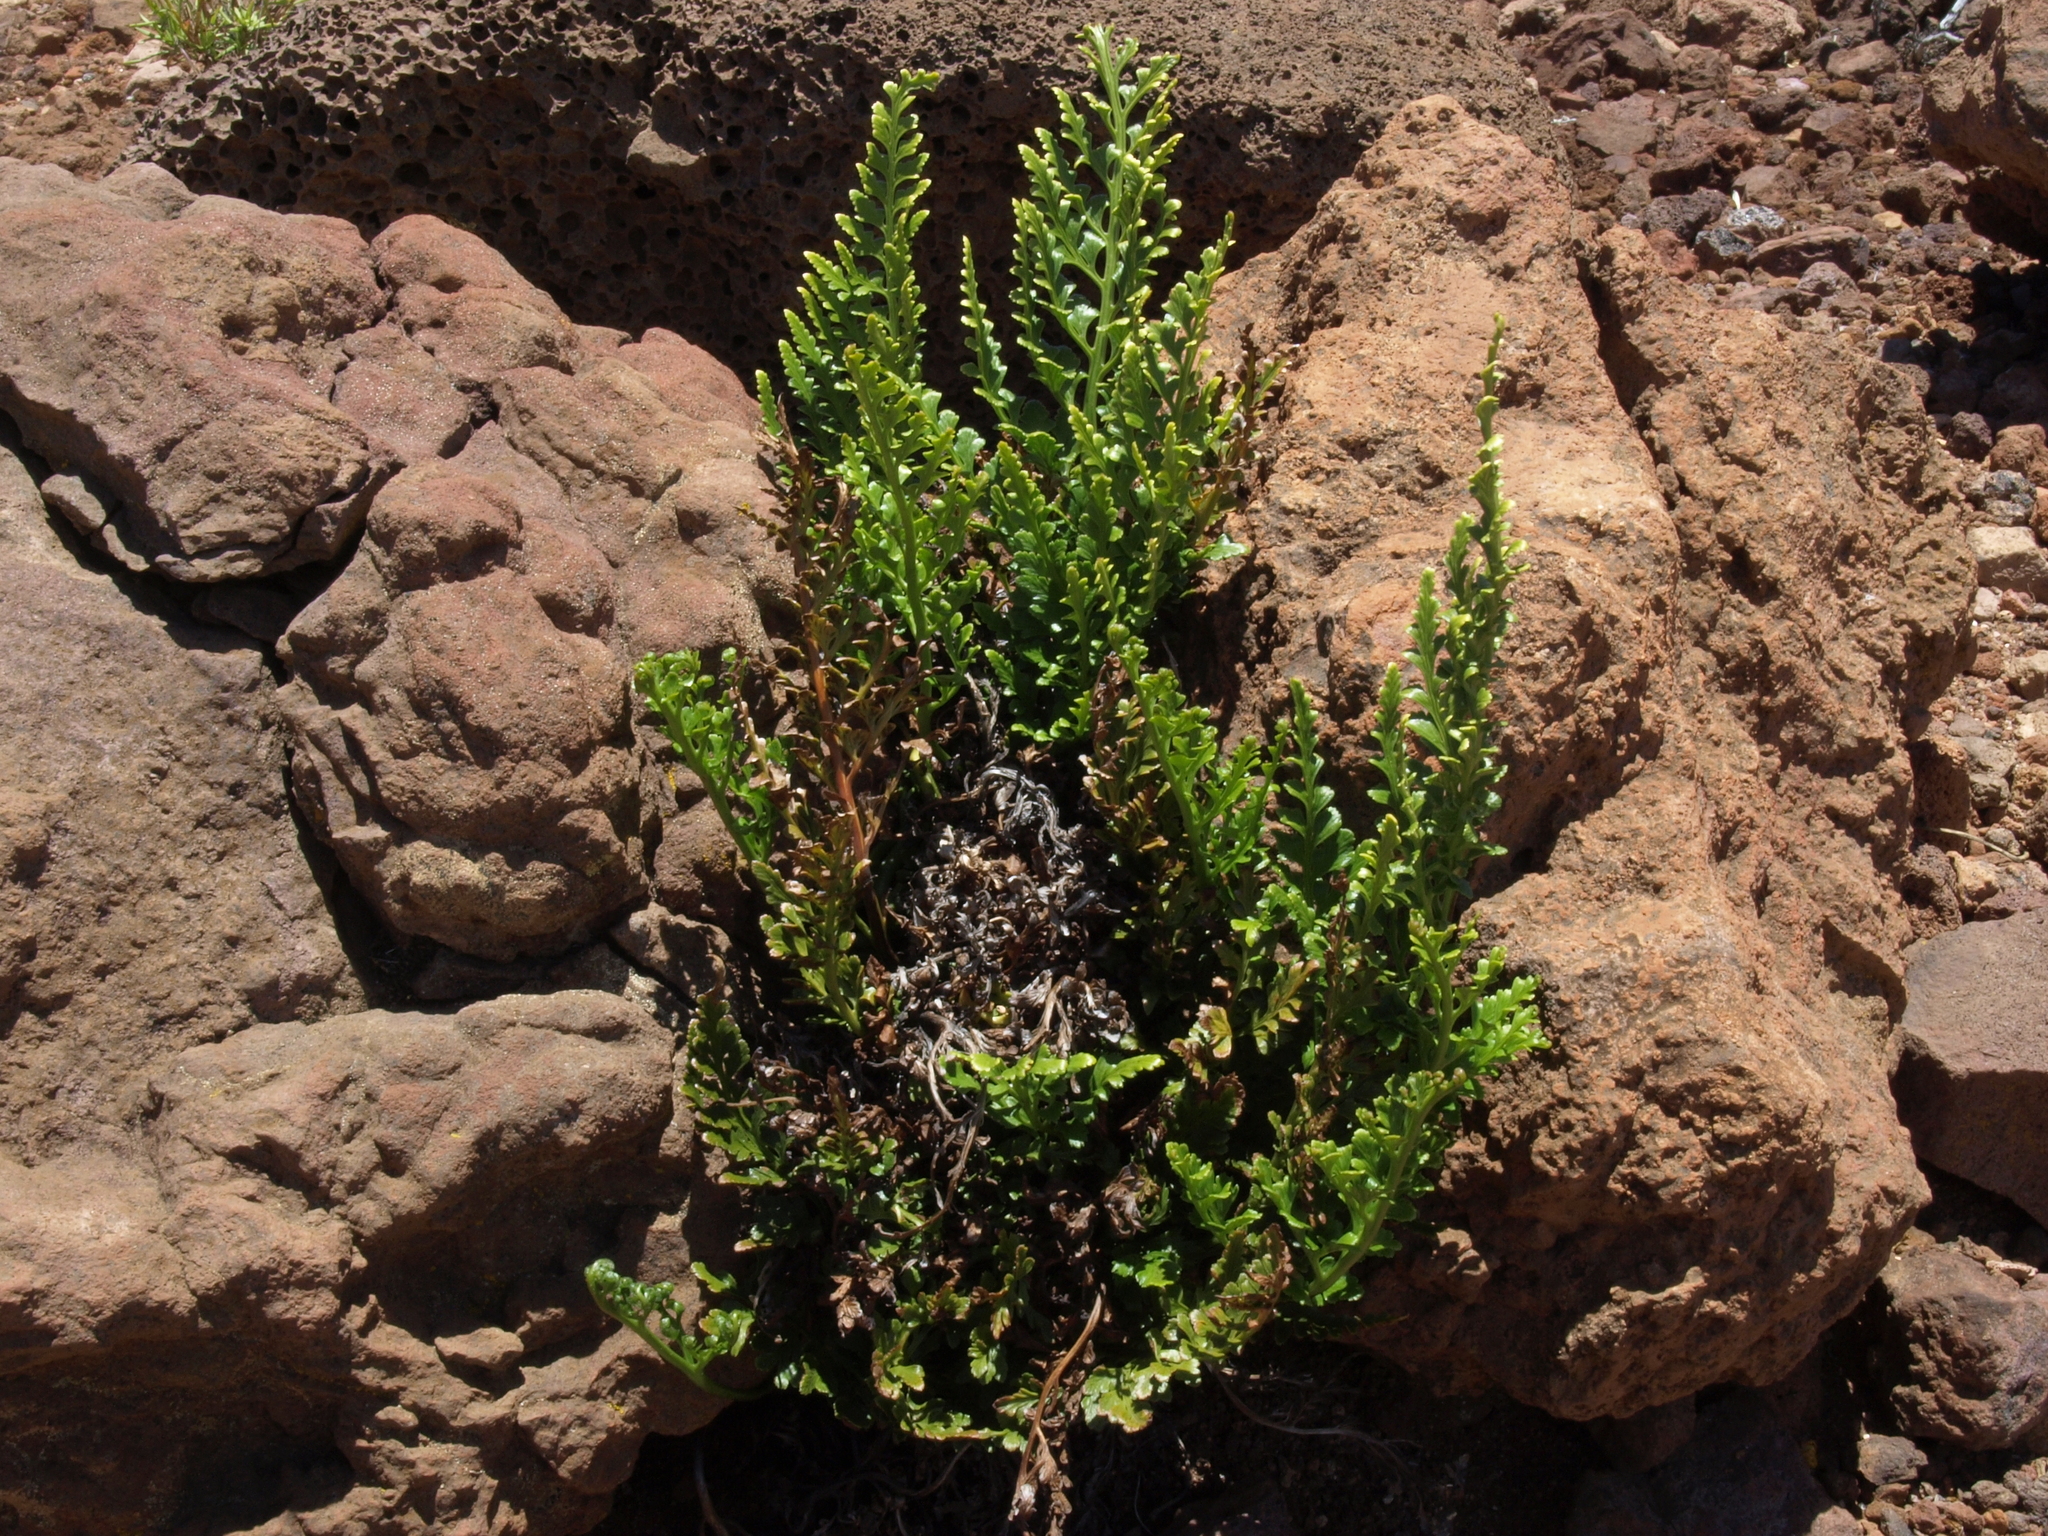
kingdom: Plantae
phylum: Tracheophyta
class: Polypodiopsida
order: Polypodiales
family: Aspleniaceae
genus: Asplenium
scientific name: Asplenium adiantum-nigrum
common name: Black spleenwort
